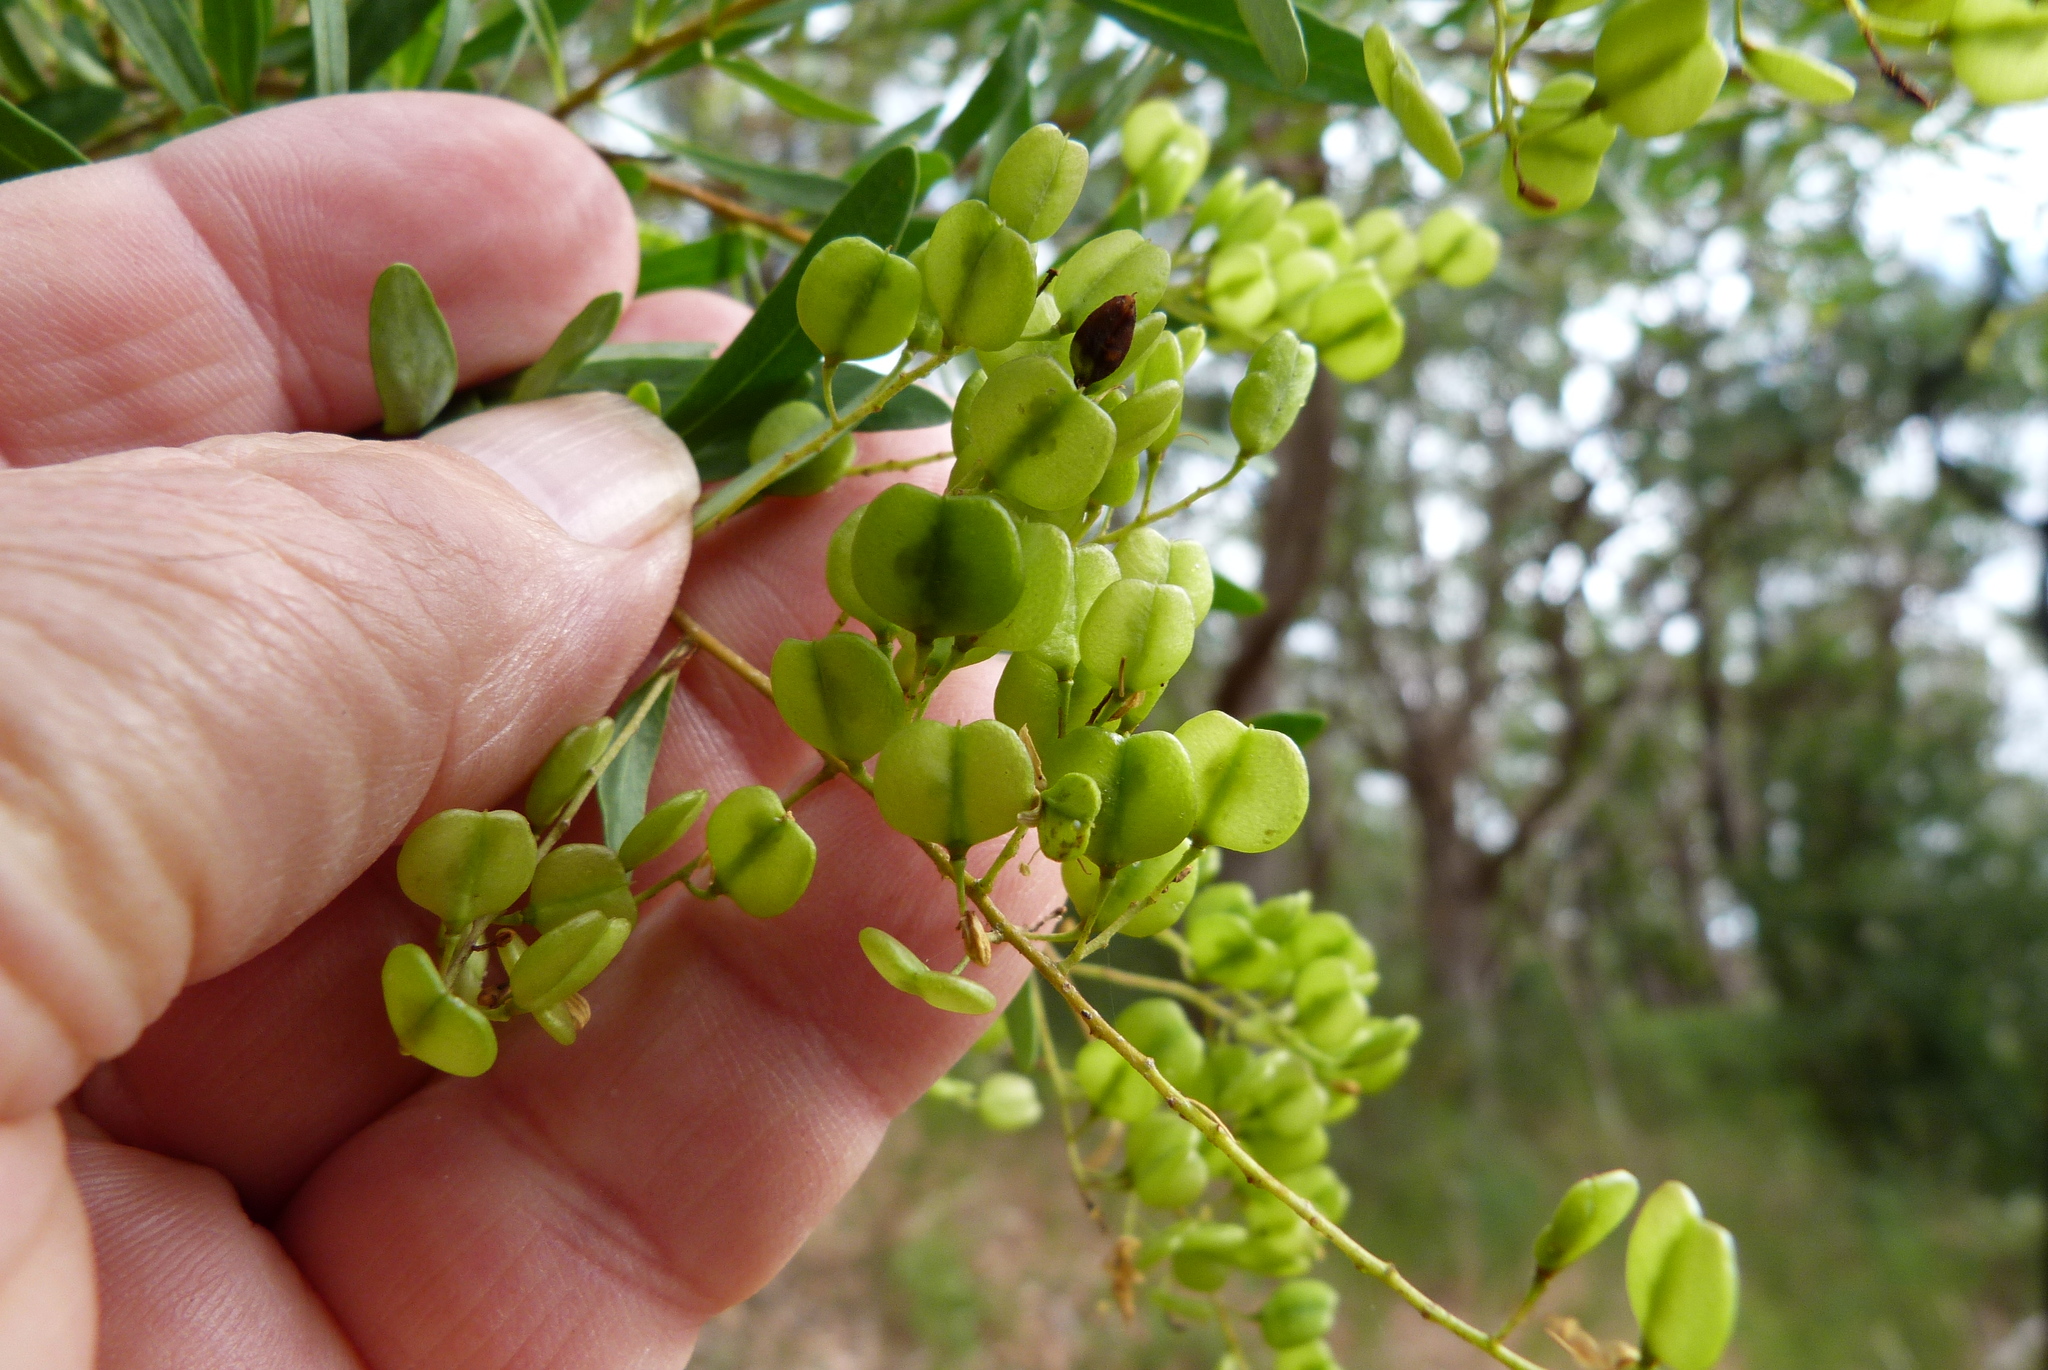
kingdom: Plantae
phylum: Tracheophyta
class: Magnoliopsida
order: Apiales
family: Pittosporaceae
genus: Bursaria
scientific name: Bursaria spinosa
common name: Australian blackthorn
